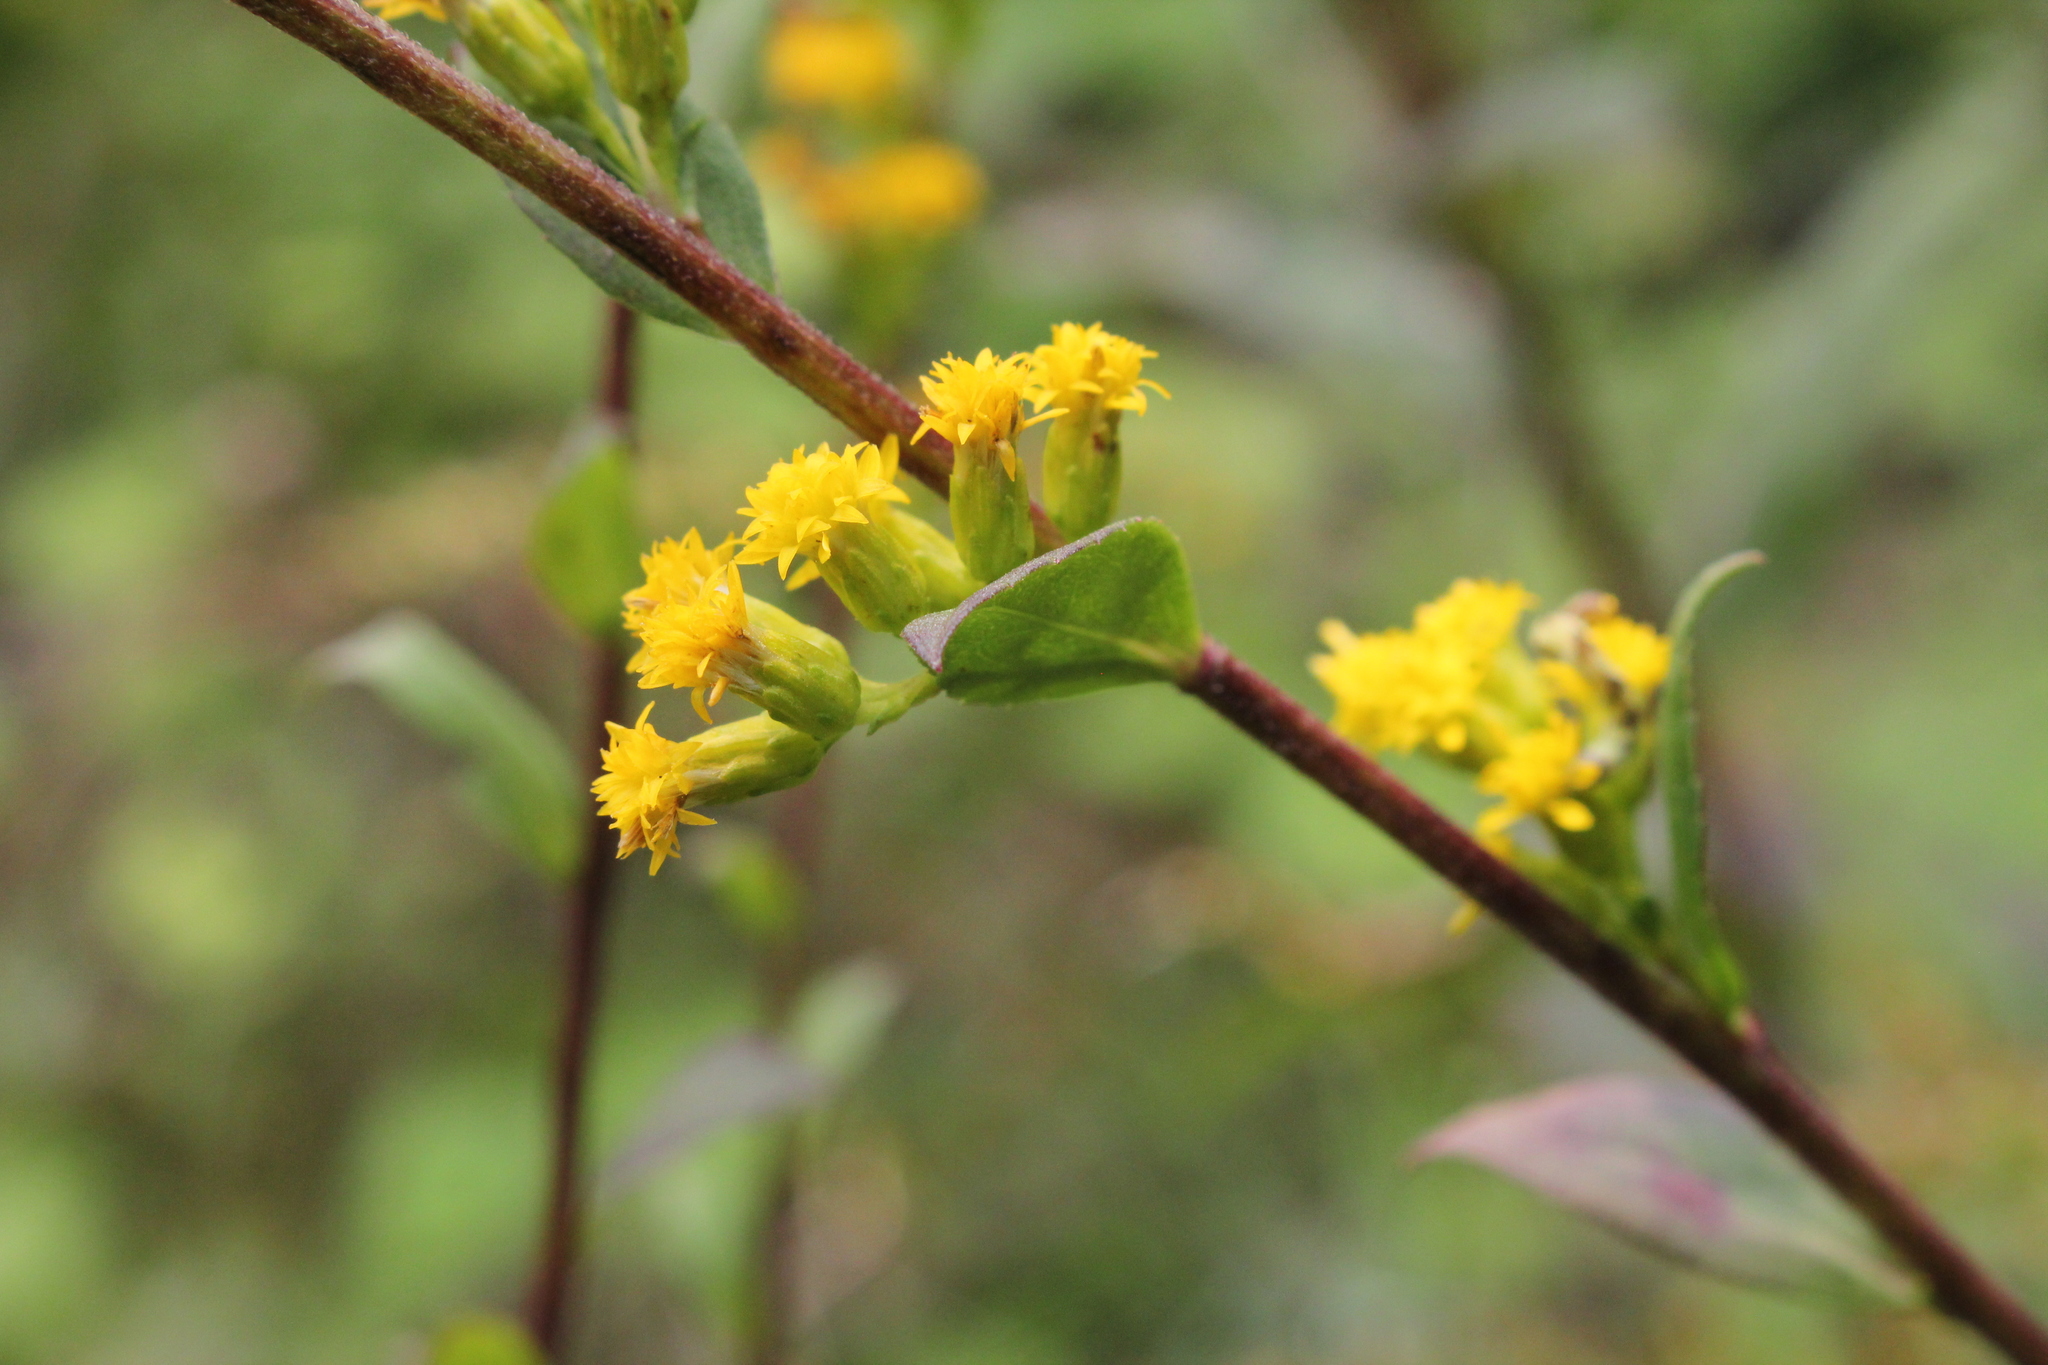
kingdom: Plantae
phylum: Tracheophyta
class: Magnoliopsida
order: Asterales
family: Asteraceae
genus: Solidago
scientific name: Solidago patula
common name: Rough-leaf goldenrod
